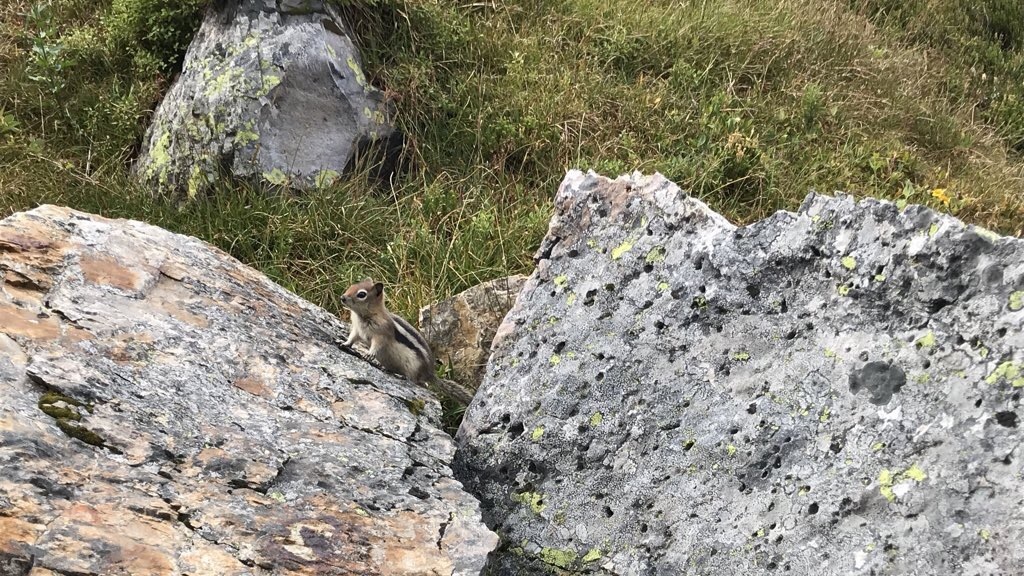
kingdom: Animalia
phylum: Chordata
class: Mammalia
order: Rodentia
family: Sciuridae
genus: Callospermophilus
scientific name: Callospermophilus lateralis
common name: Golden-mantled ground squirrel
